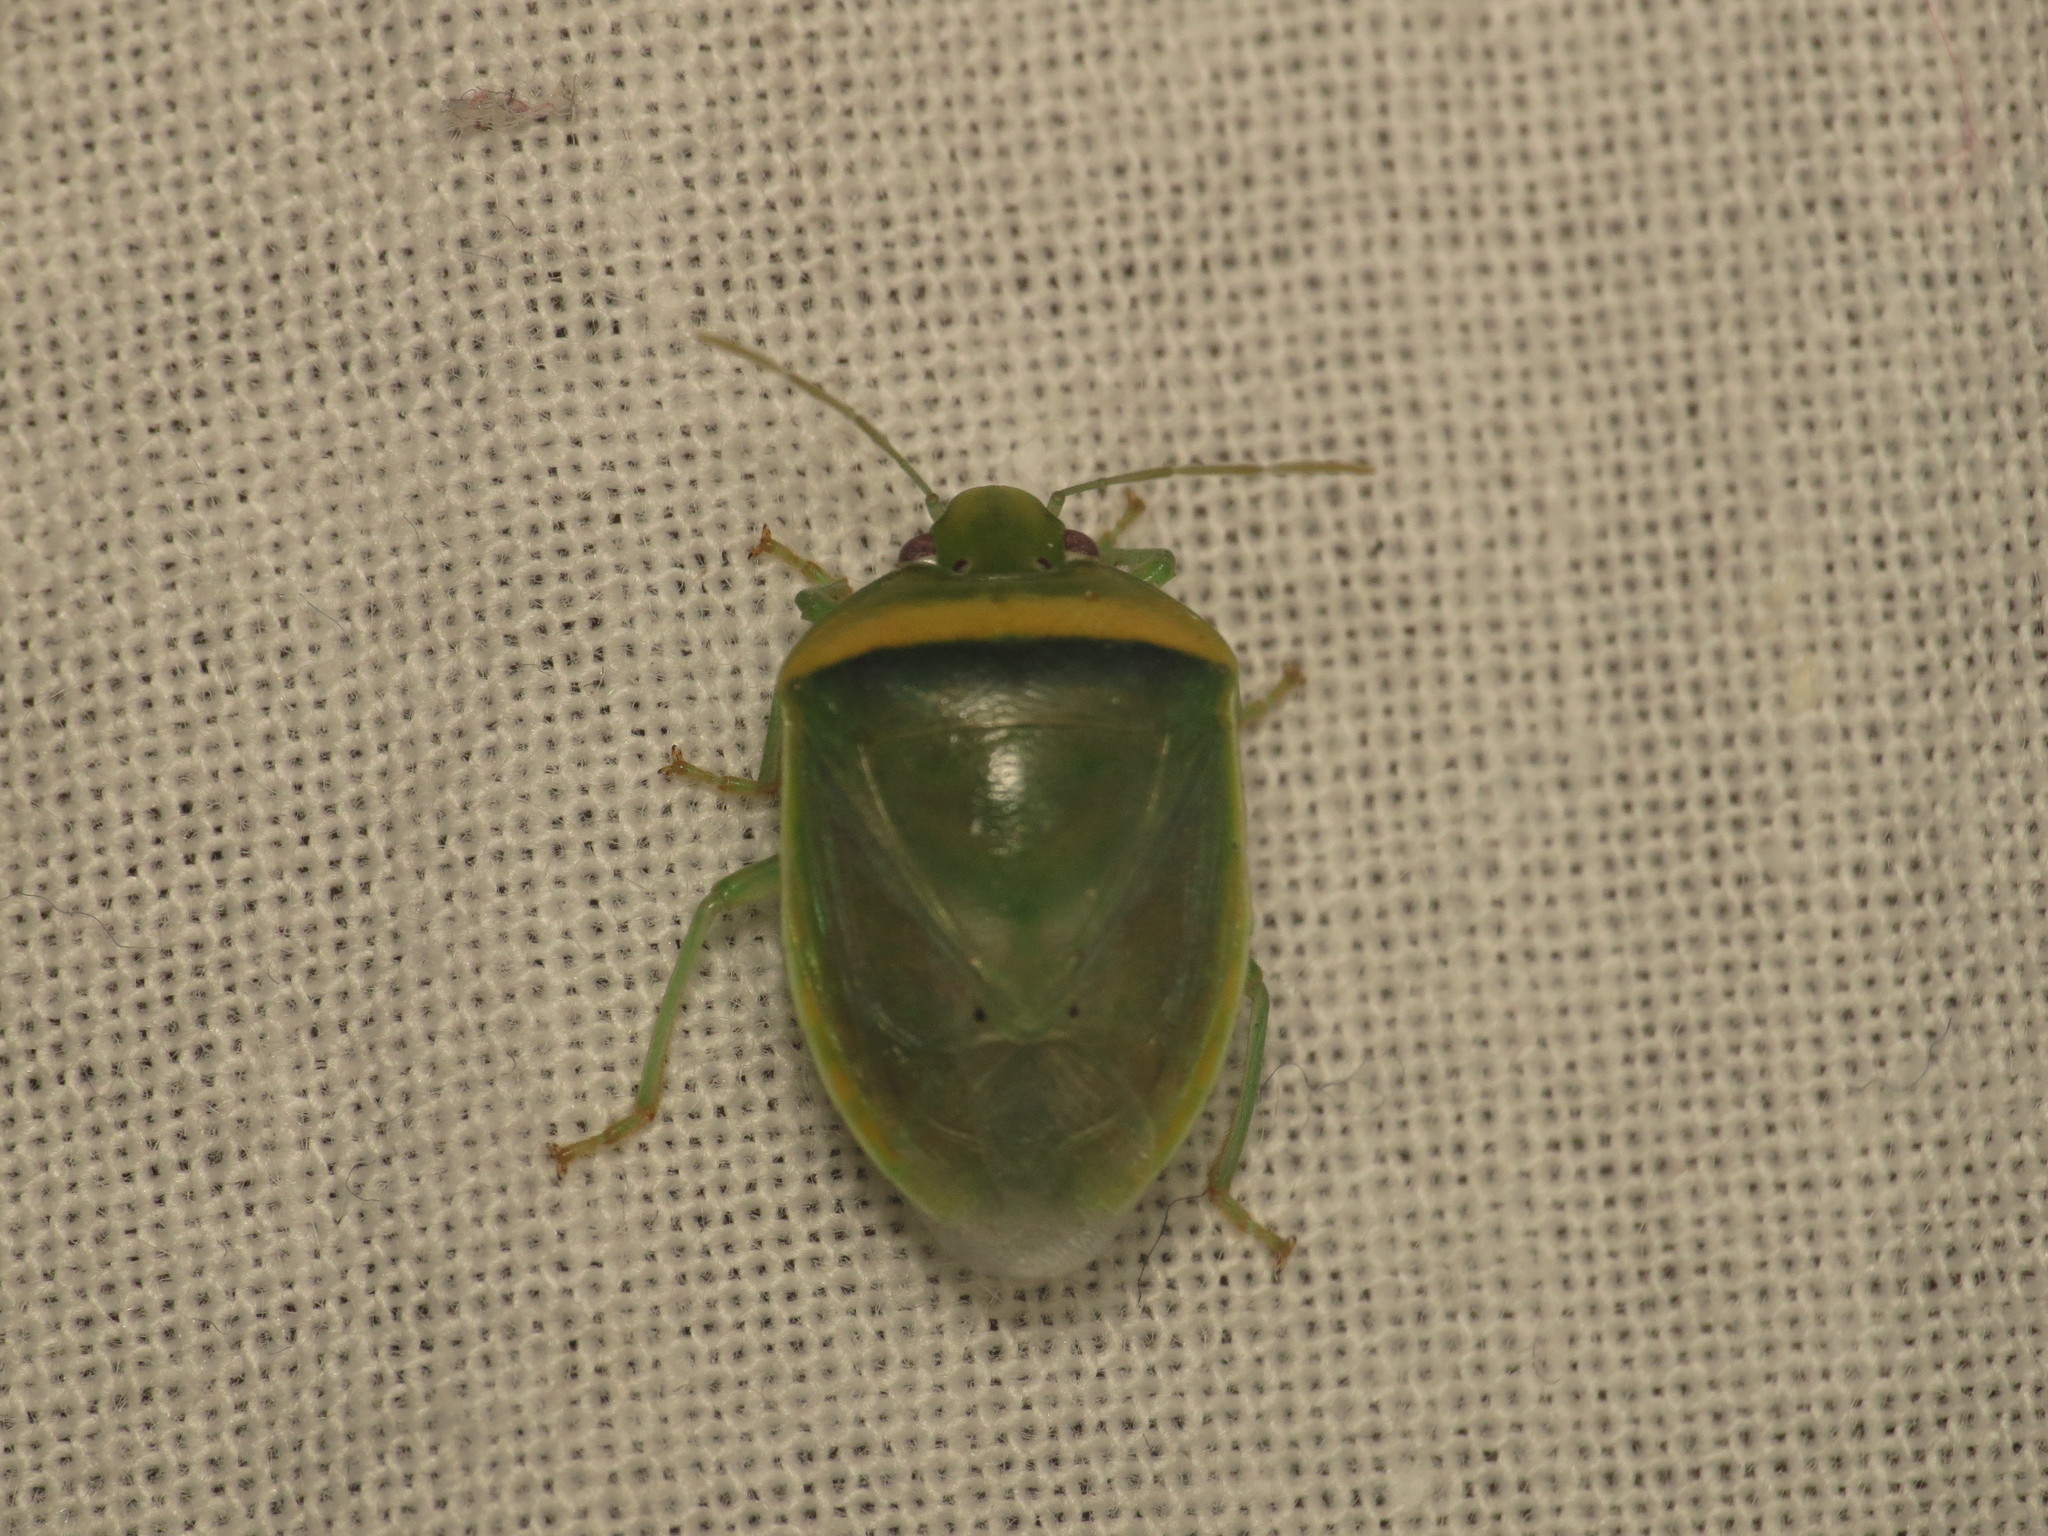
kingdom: Animalia
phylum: Arthropoda
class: Insecta
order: Hemiptera
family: Pentatomidae
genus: Alciphron
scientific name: Alciphron glaucus
